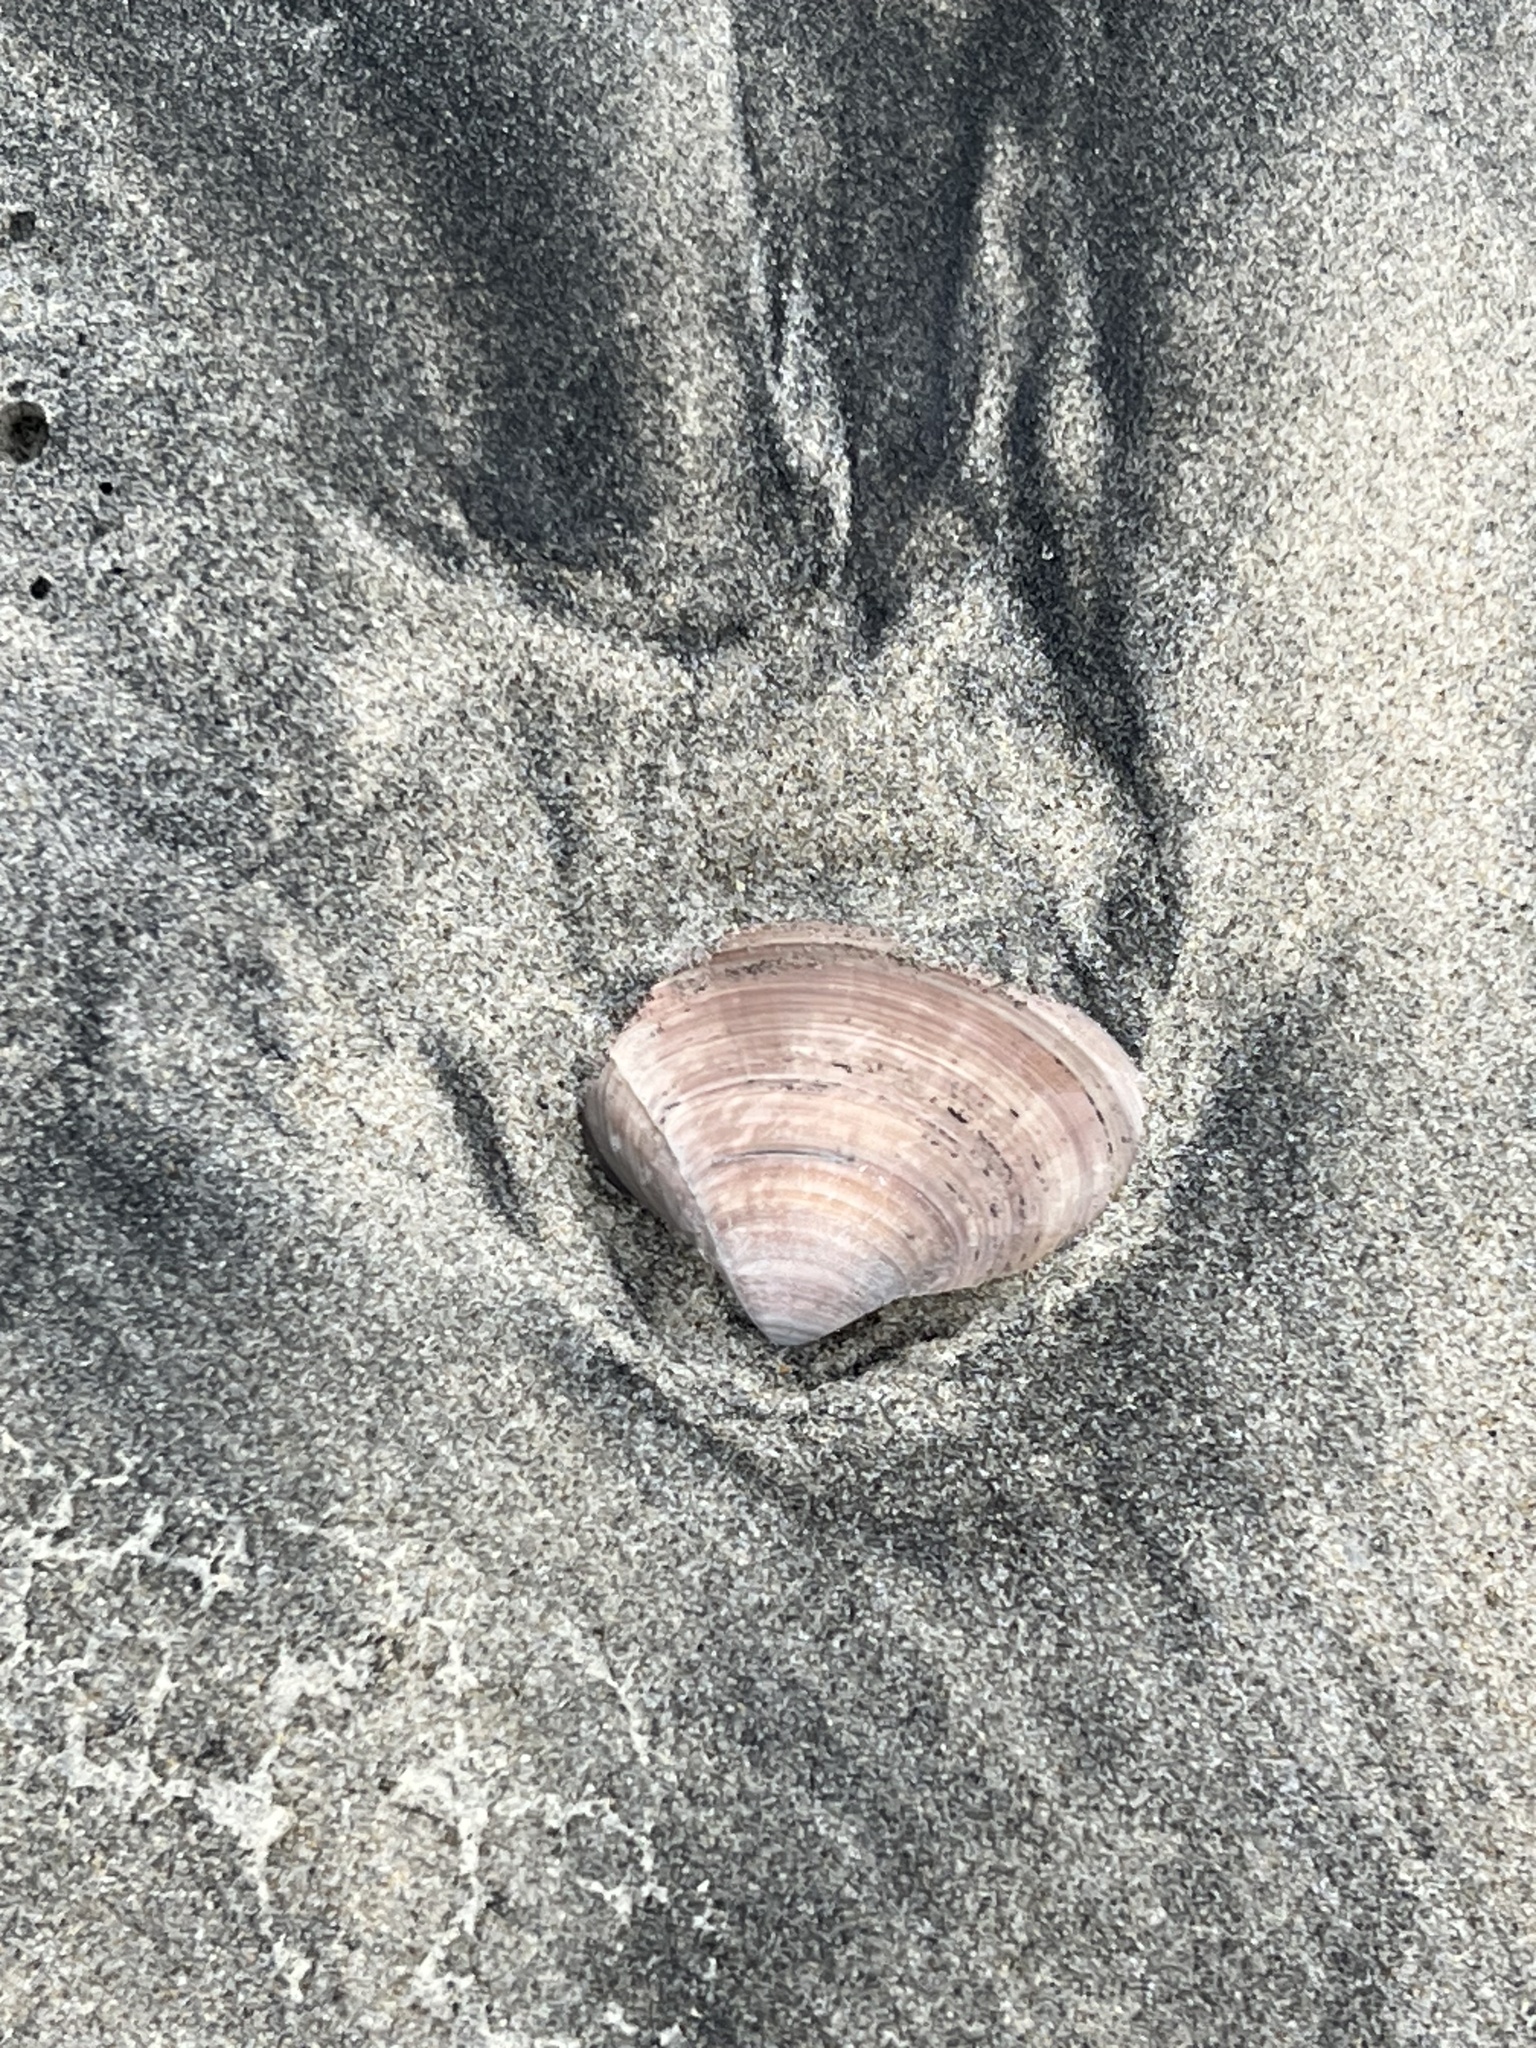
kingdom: Animalia
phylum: Mollusca
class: Bivalvia
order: Venerida
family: Veneridae
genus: Tivela
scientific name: Tivela stultorum
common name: Pismo clam
